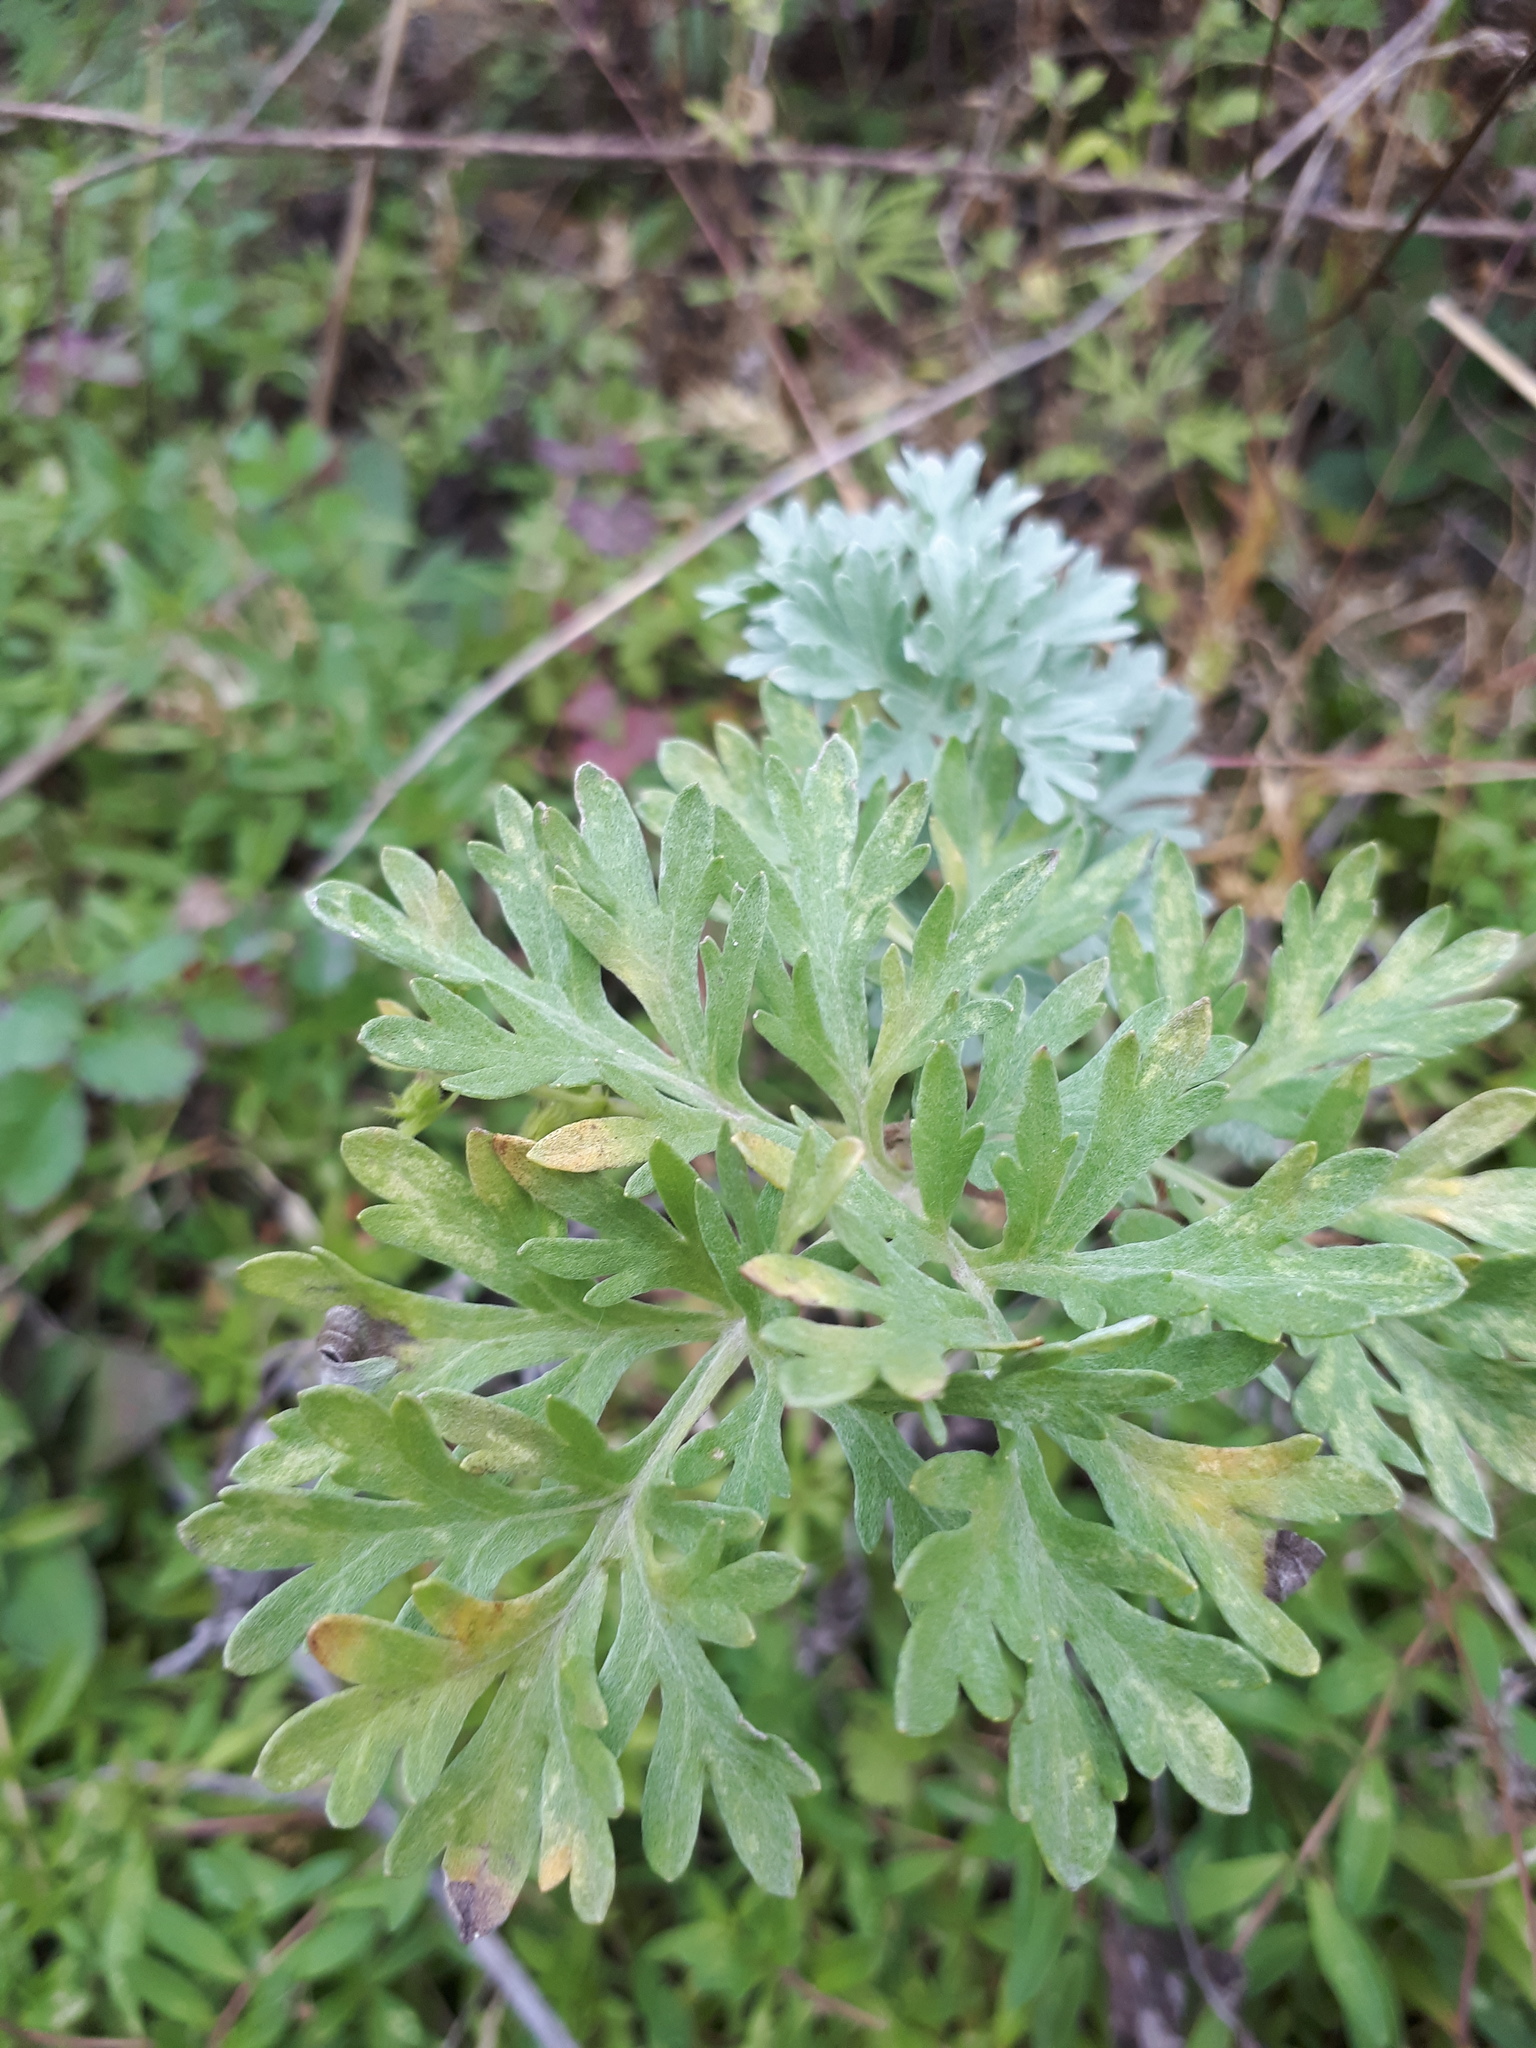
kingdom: Plantae
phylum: Tracheophyta
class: Magnoliopsida
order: Asterales
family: Asteraceae
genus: Artemisia
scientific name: Artemisia absinthium
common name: Wormwood
